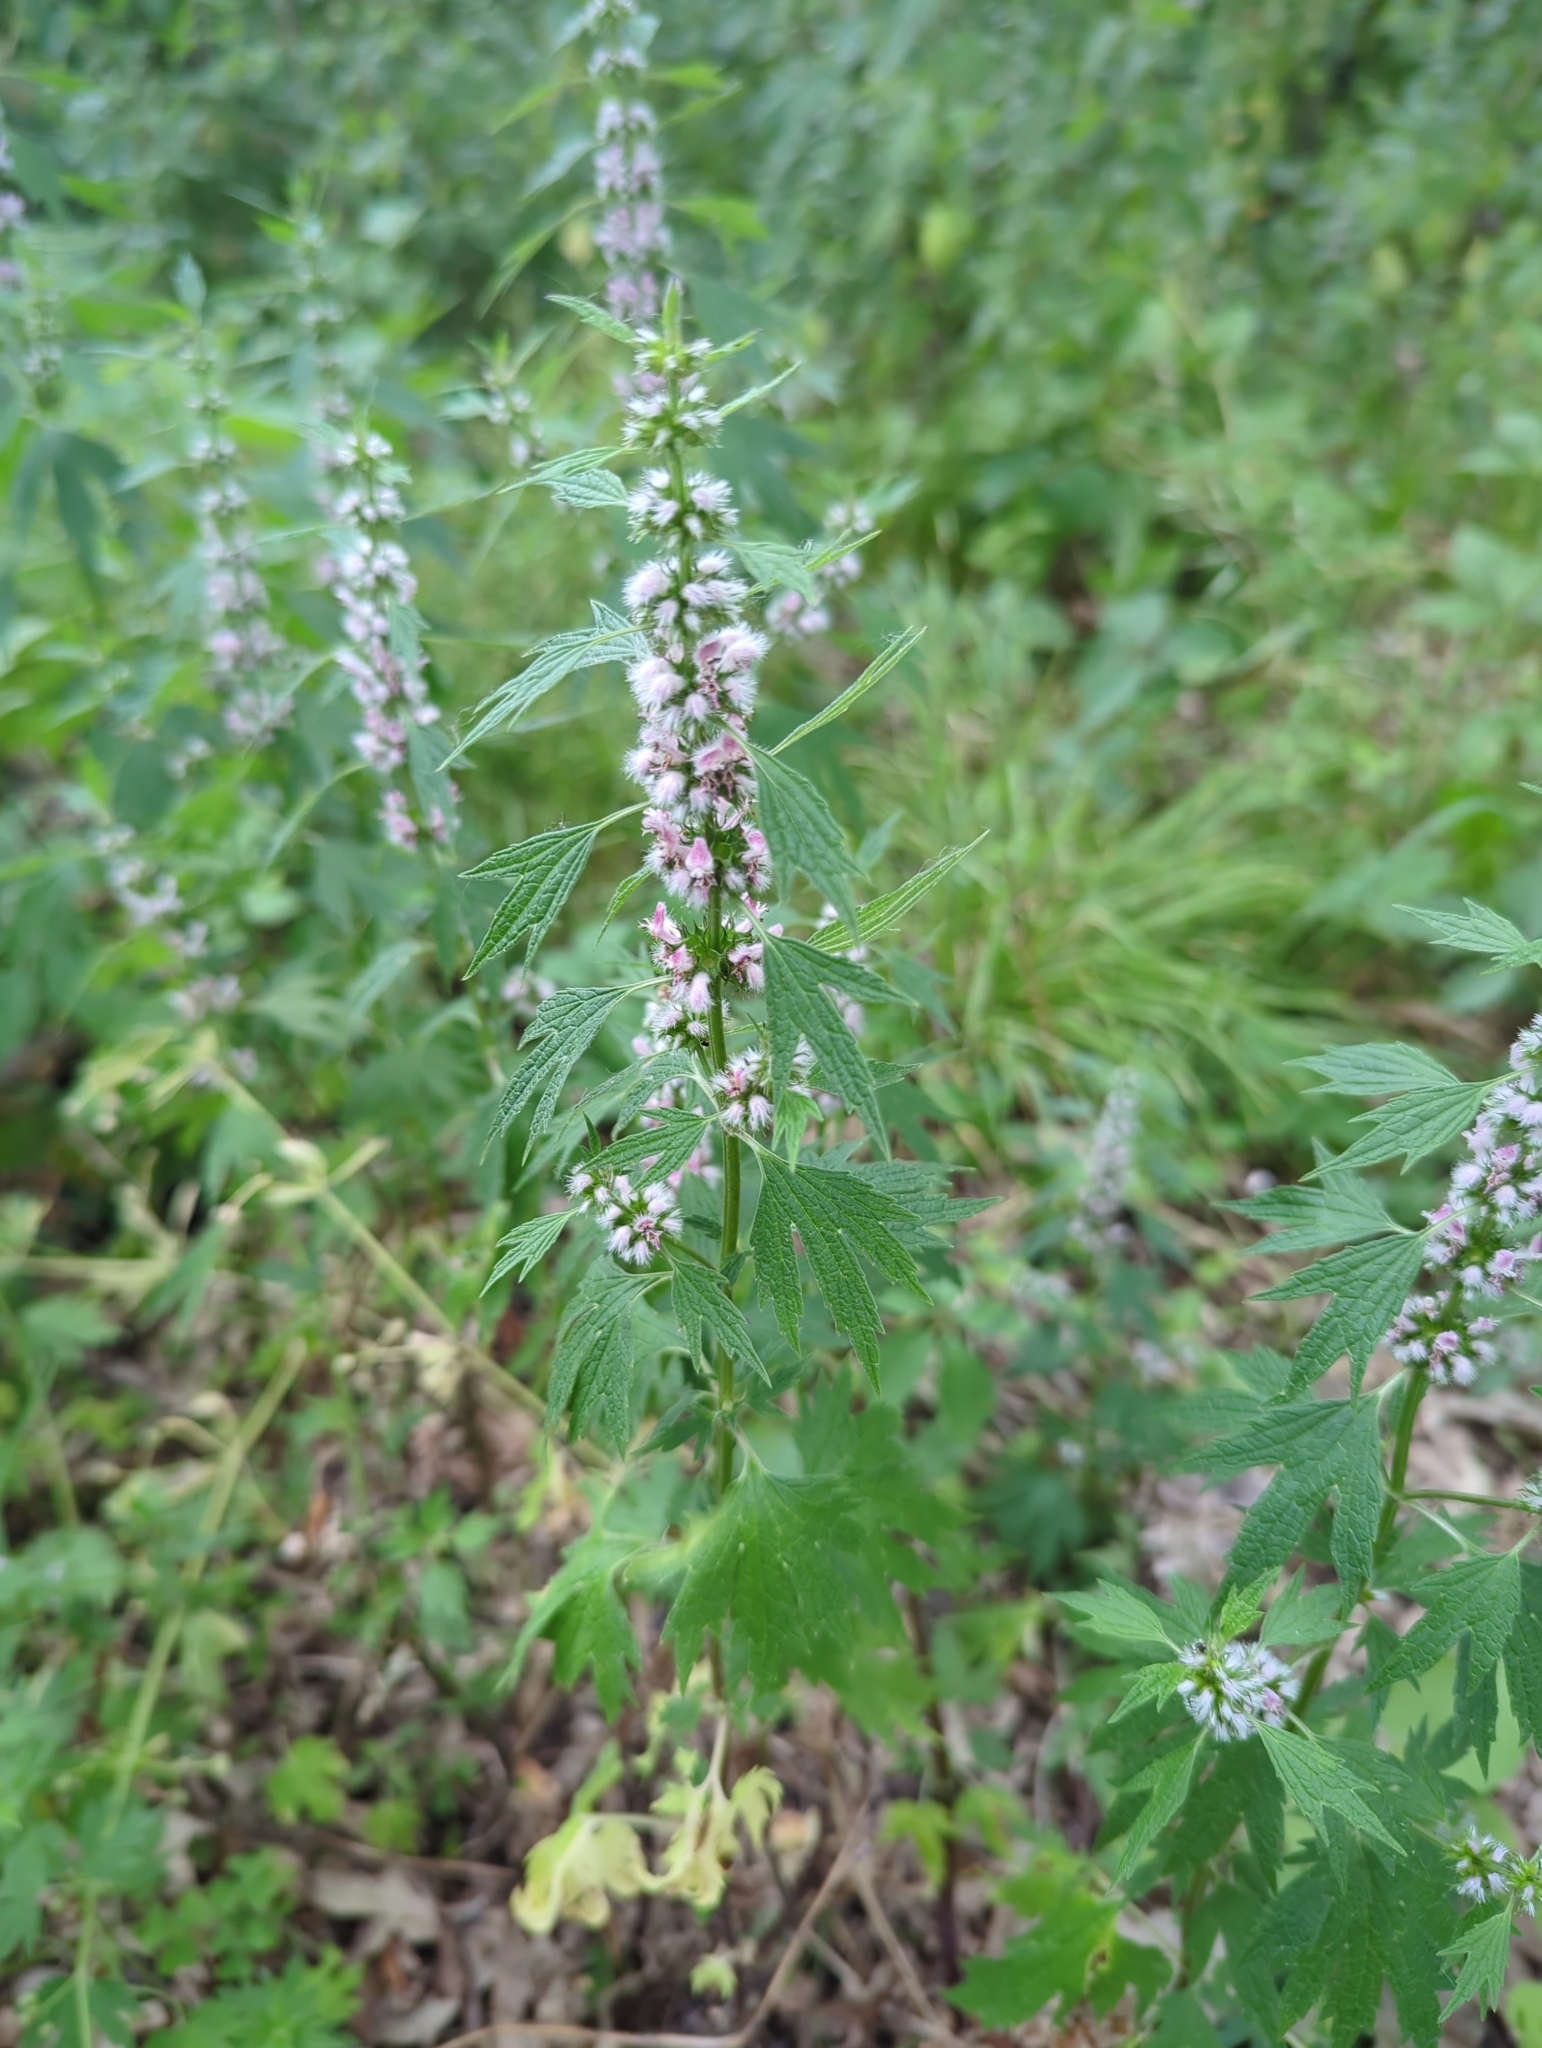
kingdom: Plantae
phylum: Tracheophyta
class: Magnoliopsida
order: Lamiales
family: Lamiaceae
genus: Leonurus
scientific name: Leonurus cardiaca
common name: Motherwort
